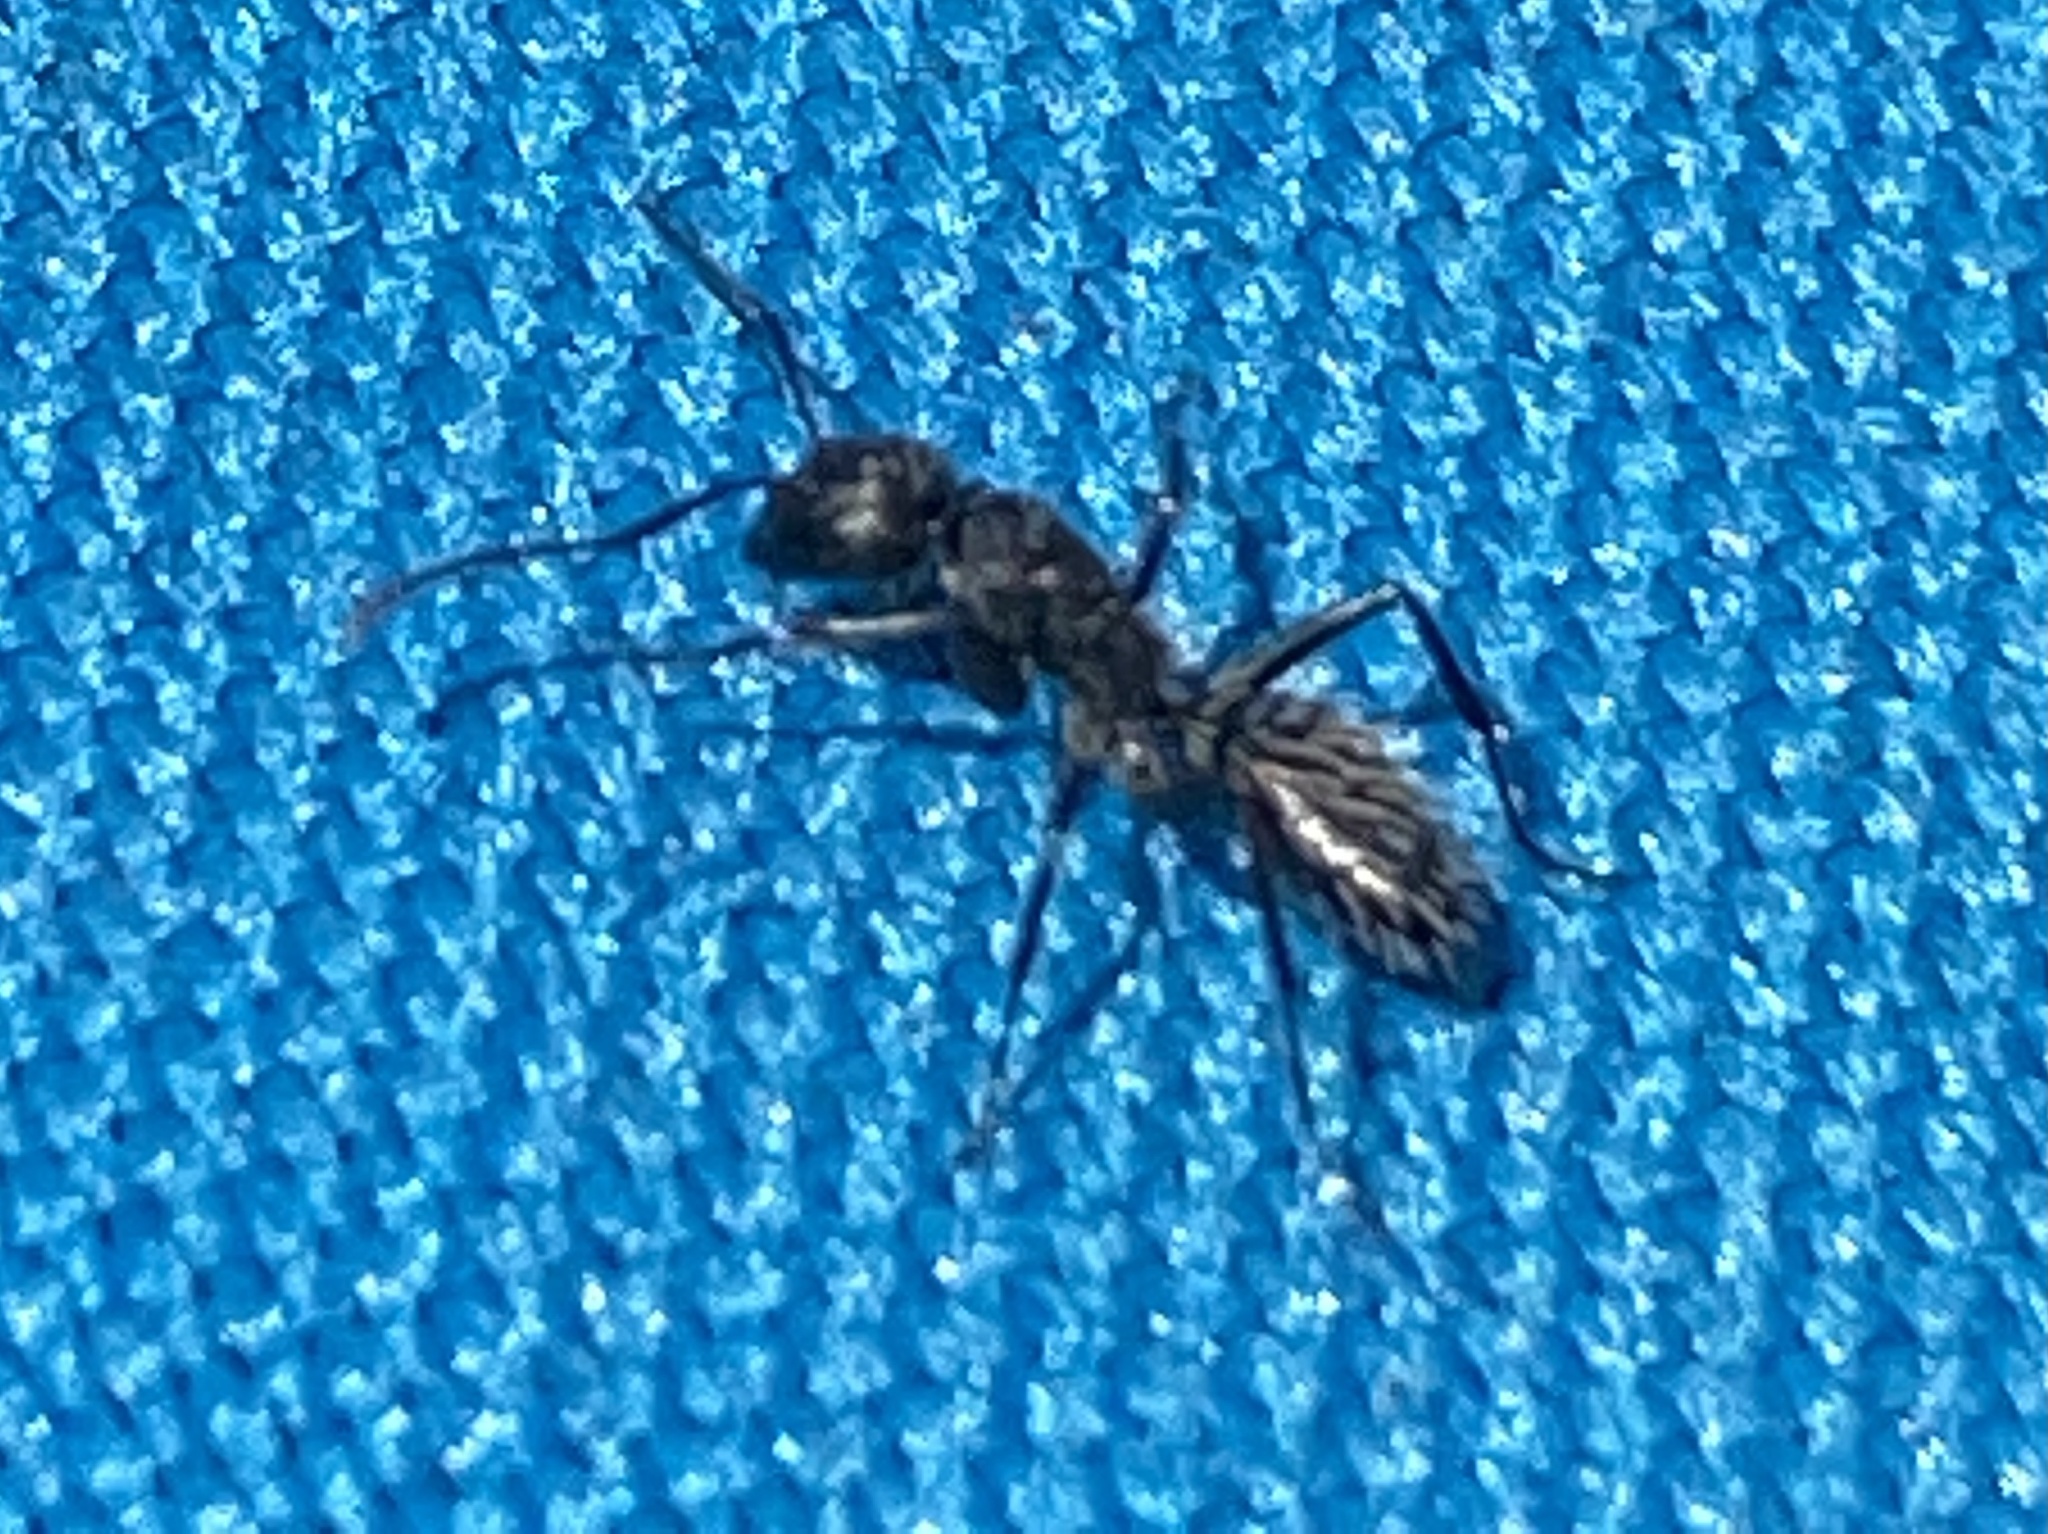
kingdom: Animalia
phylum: Arthropoda
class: Insecta
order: Hymenoptera
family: Formicidae
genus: Camponotus
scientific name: Camponotus niveosetosus
